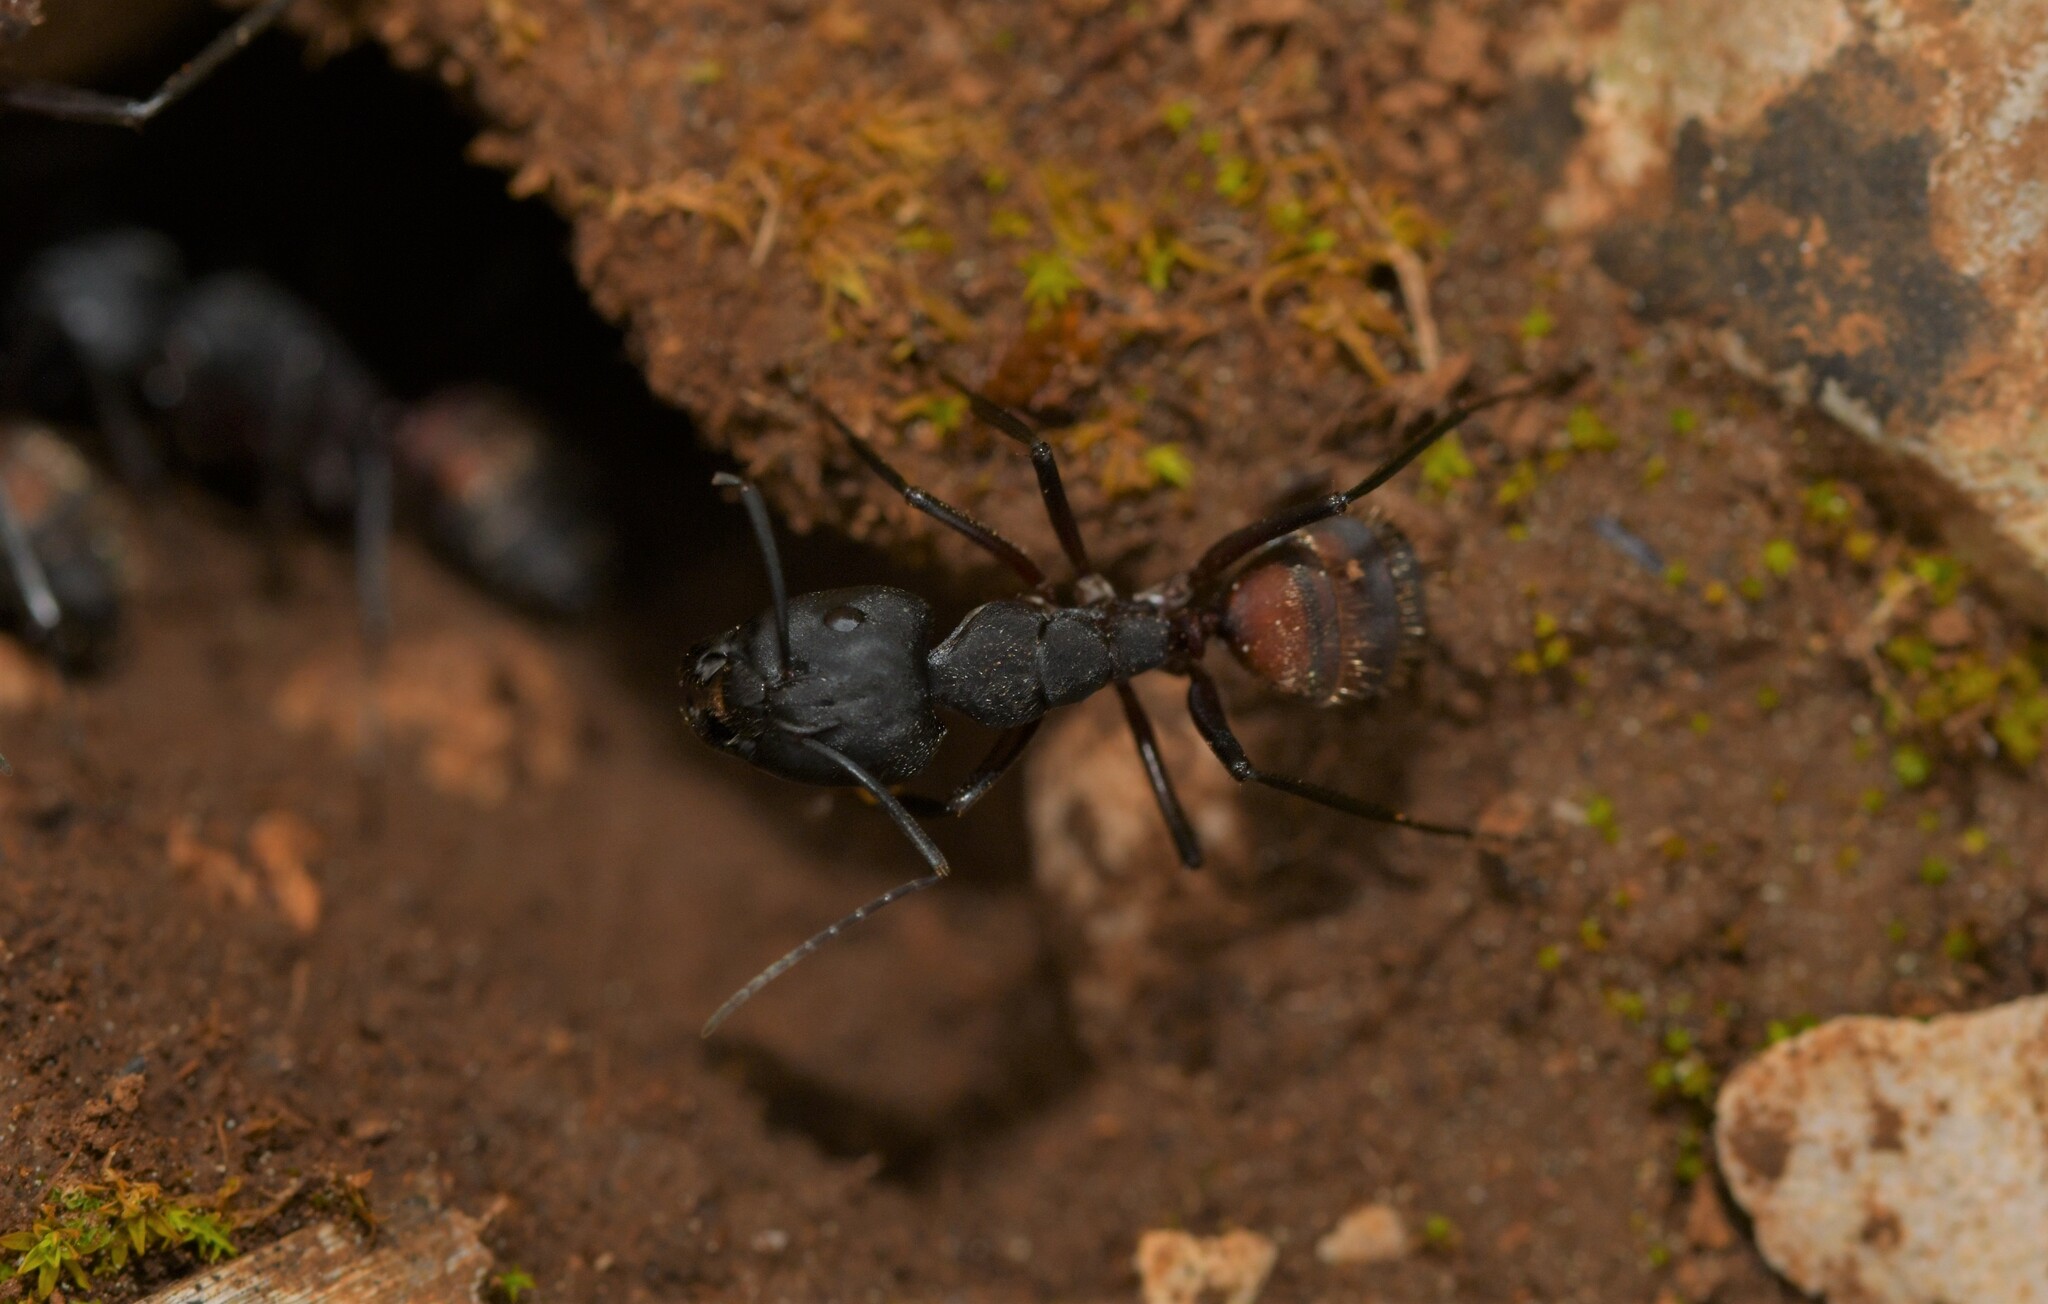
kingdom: Animalia
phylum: Arthropoda
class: Insecta
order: Hymenoptera
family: Formicidae
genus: Camponotus
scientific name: Camponotus cruentatus
